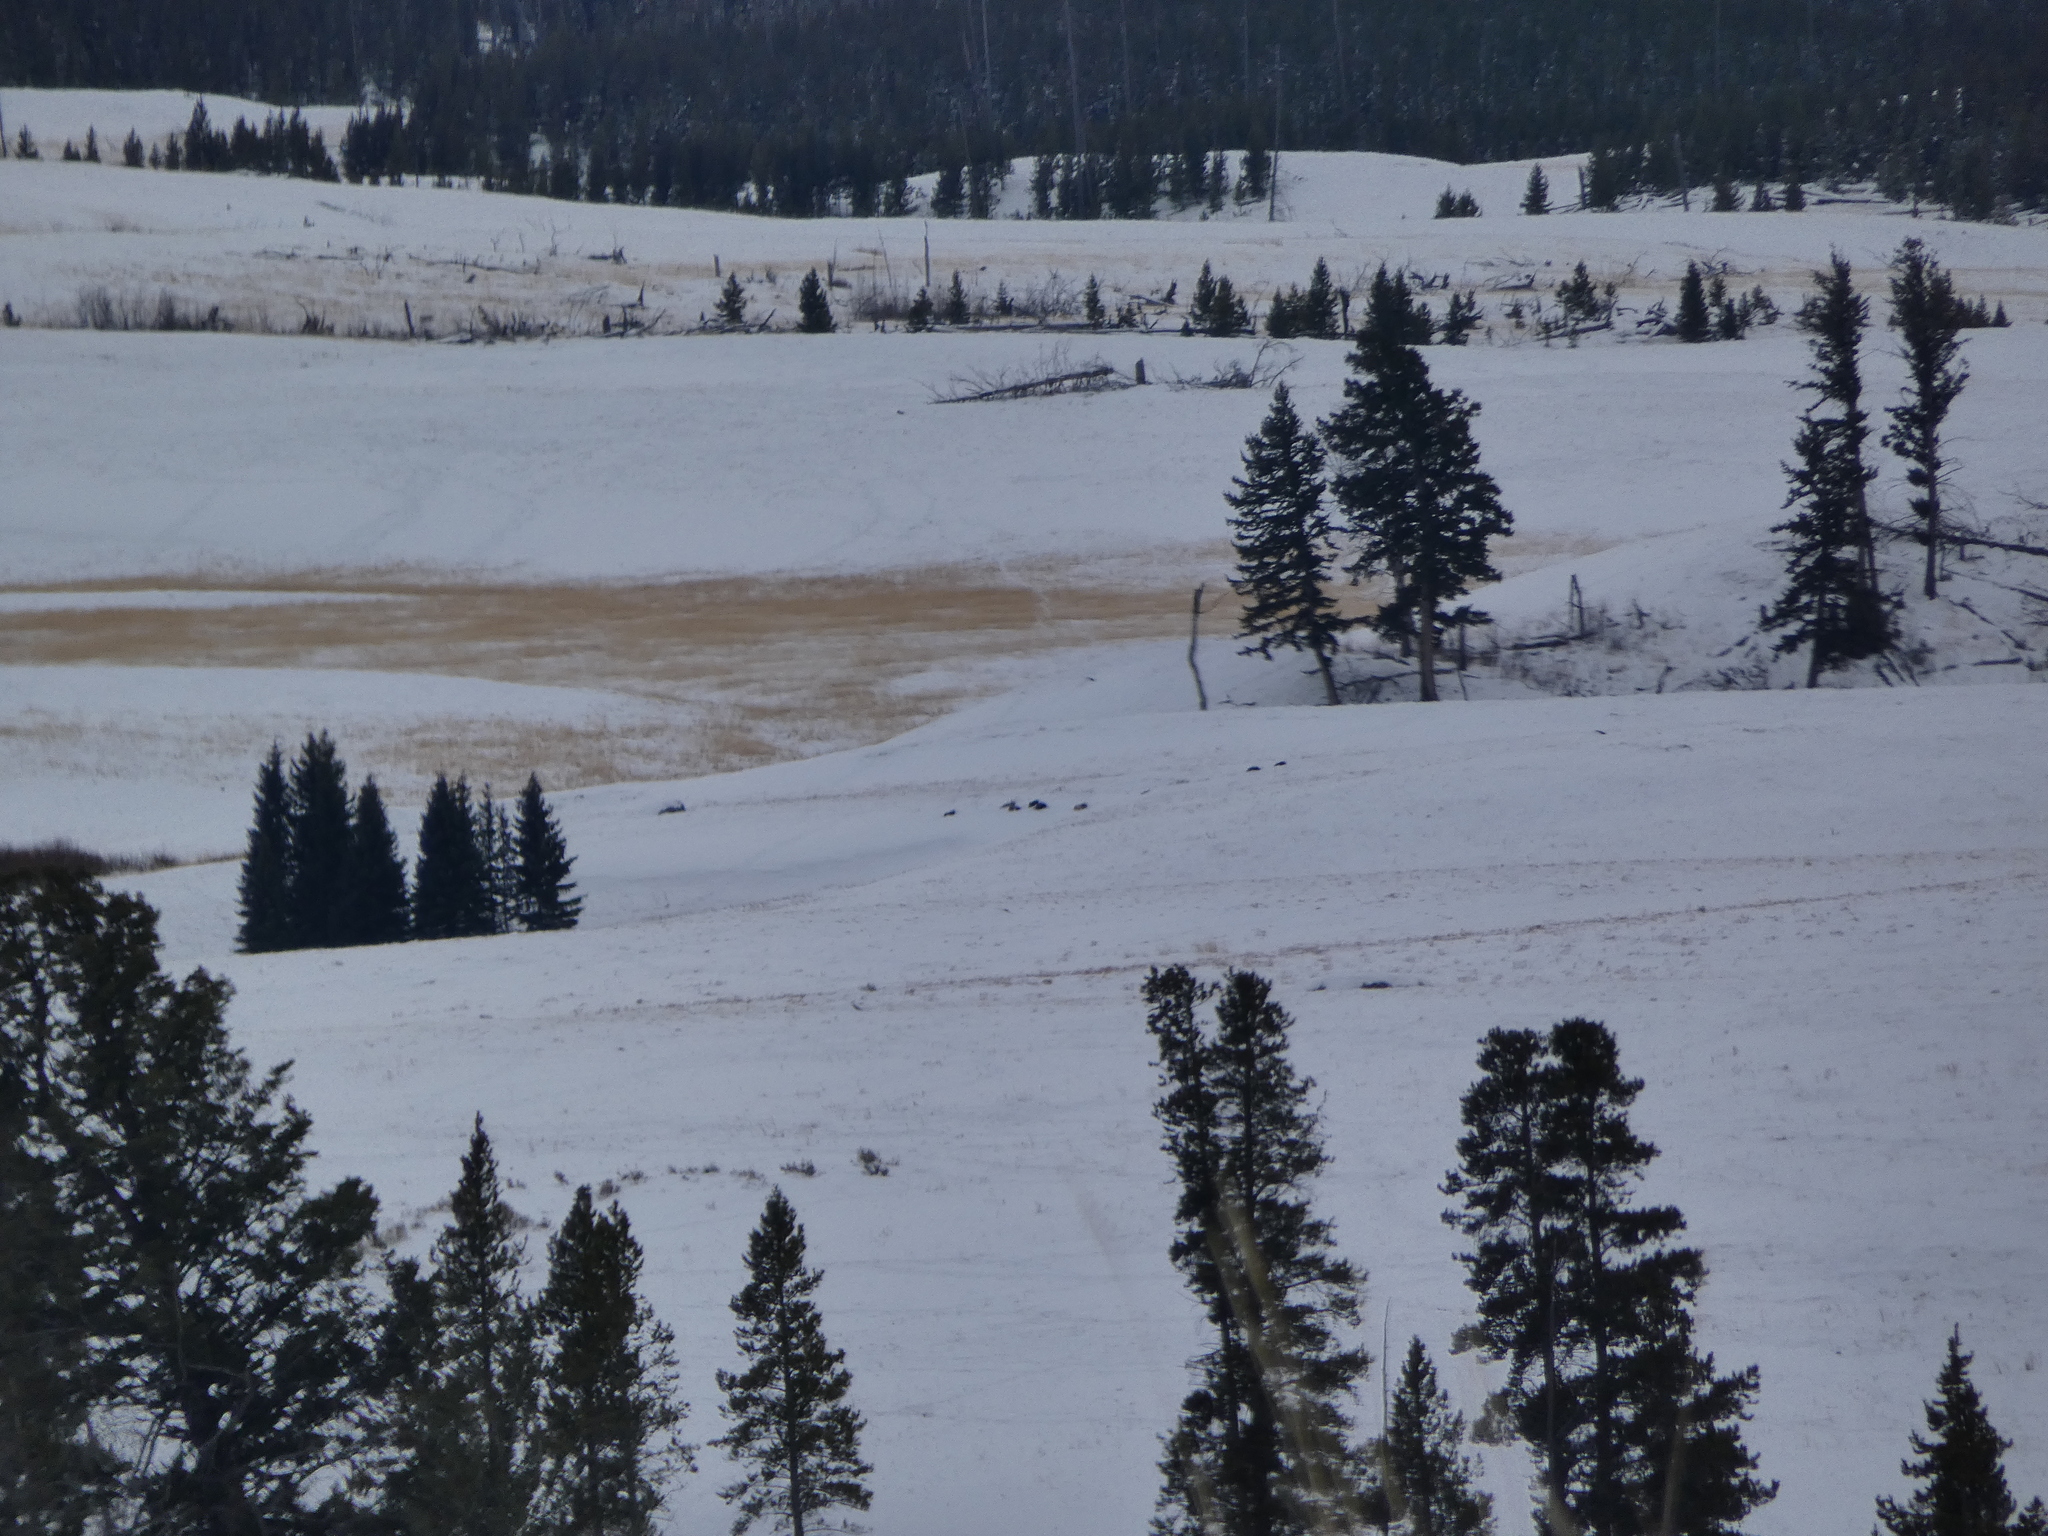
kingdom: Animalia
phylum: Chordata
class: Mammalia
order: Carnivora
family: Canidae
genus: Canis
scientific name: Canis lupus
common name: Gray wolf
